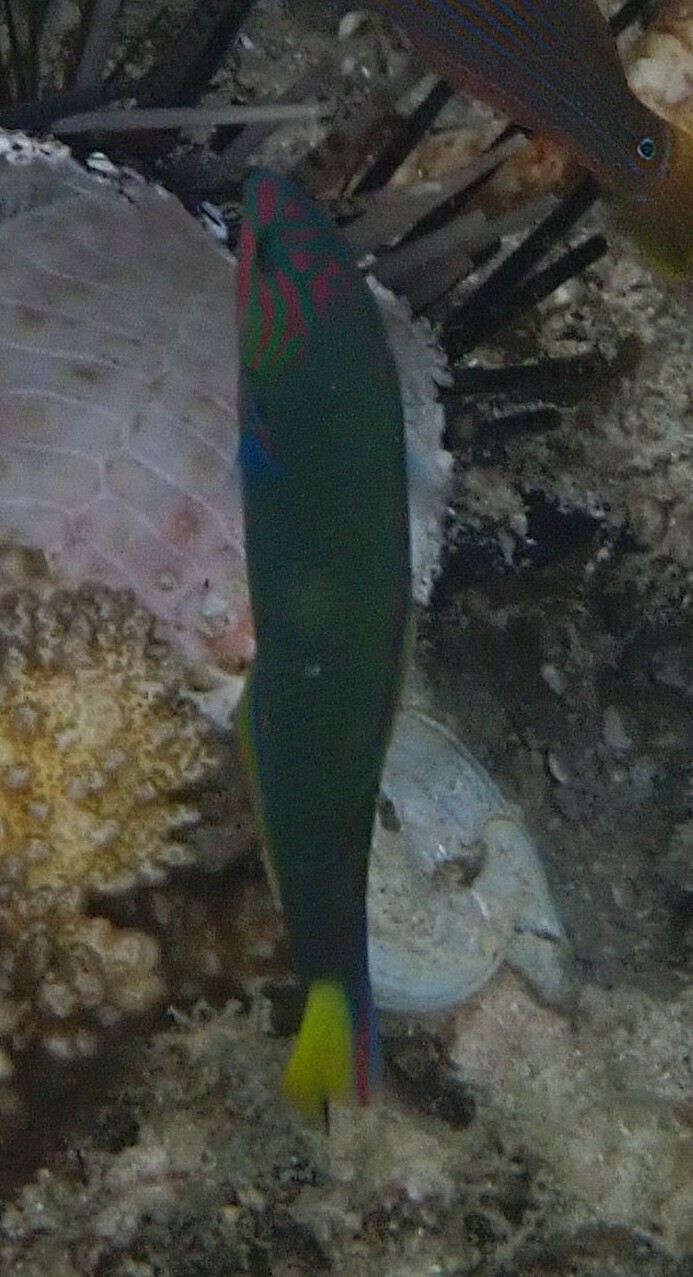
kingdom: Animalia
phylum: Chordata
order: Perciformes
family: Labridae
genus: Thalassoma
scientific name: Thalassoma lunare
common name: Blue wrasse
